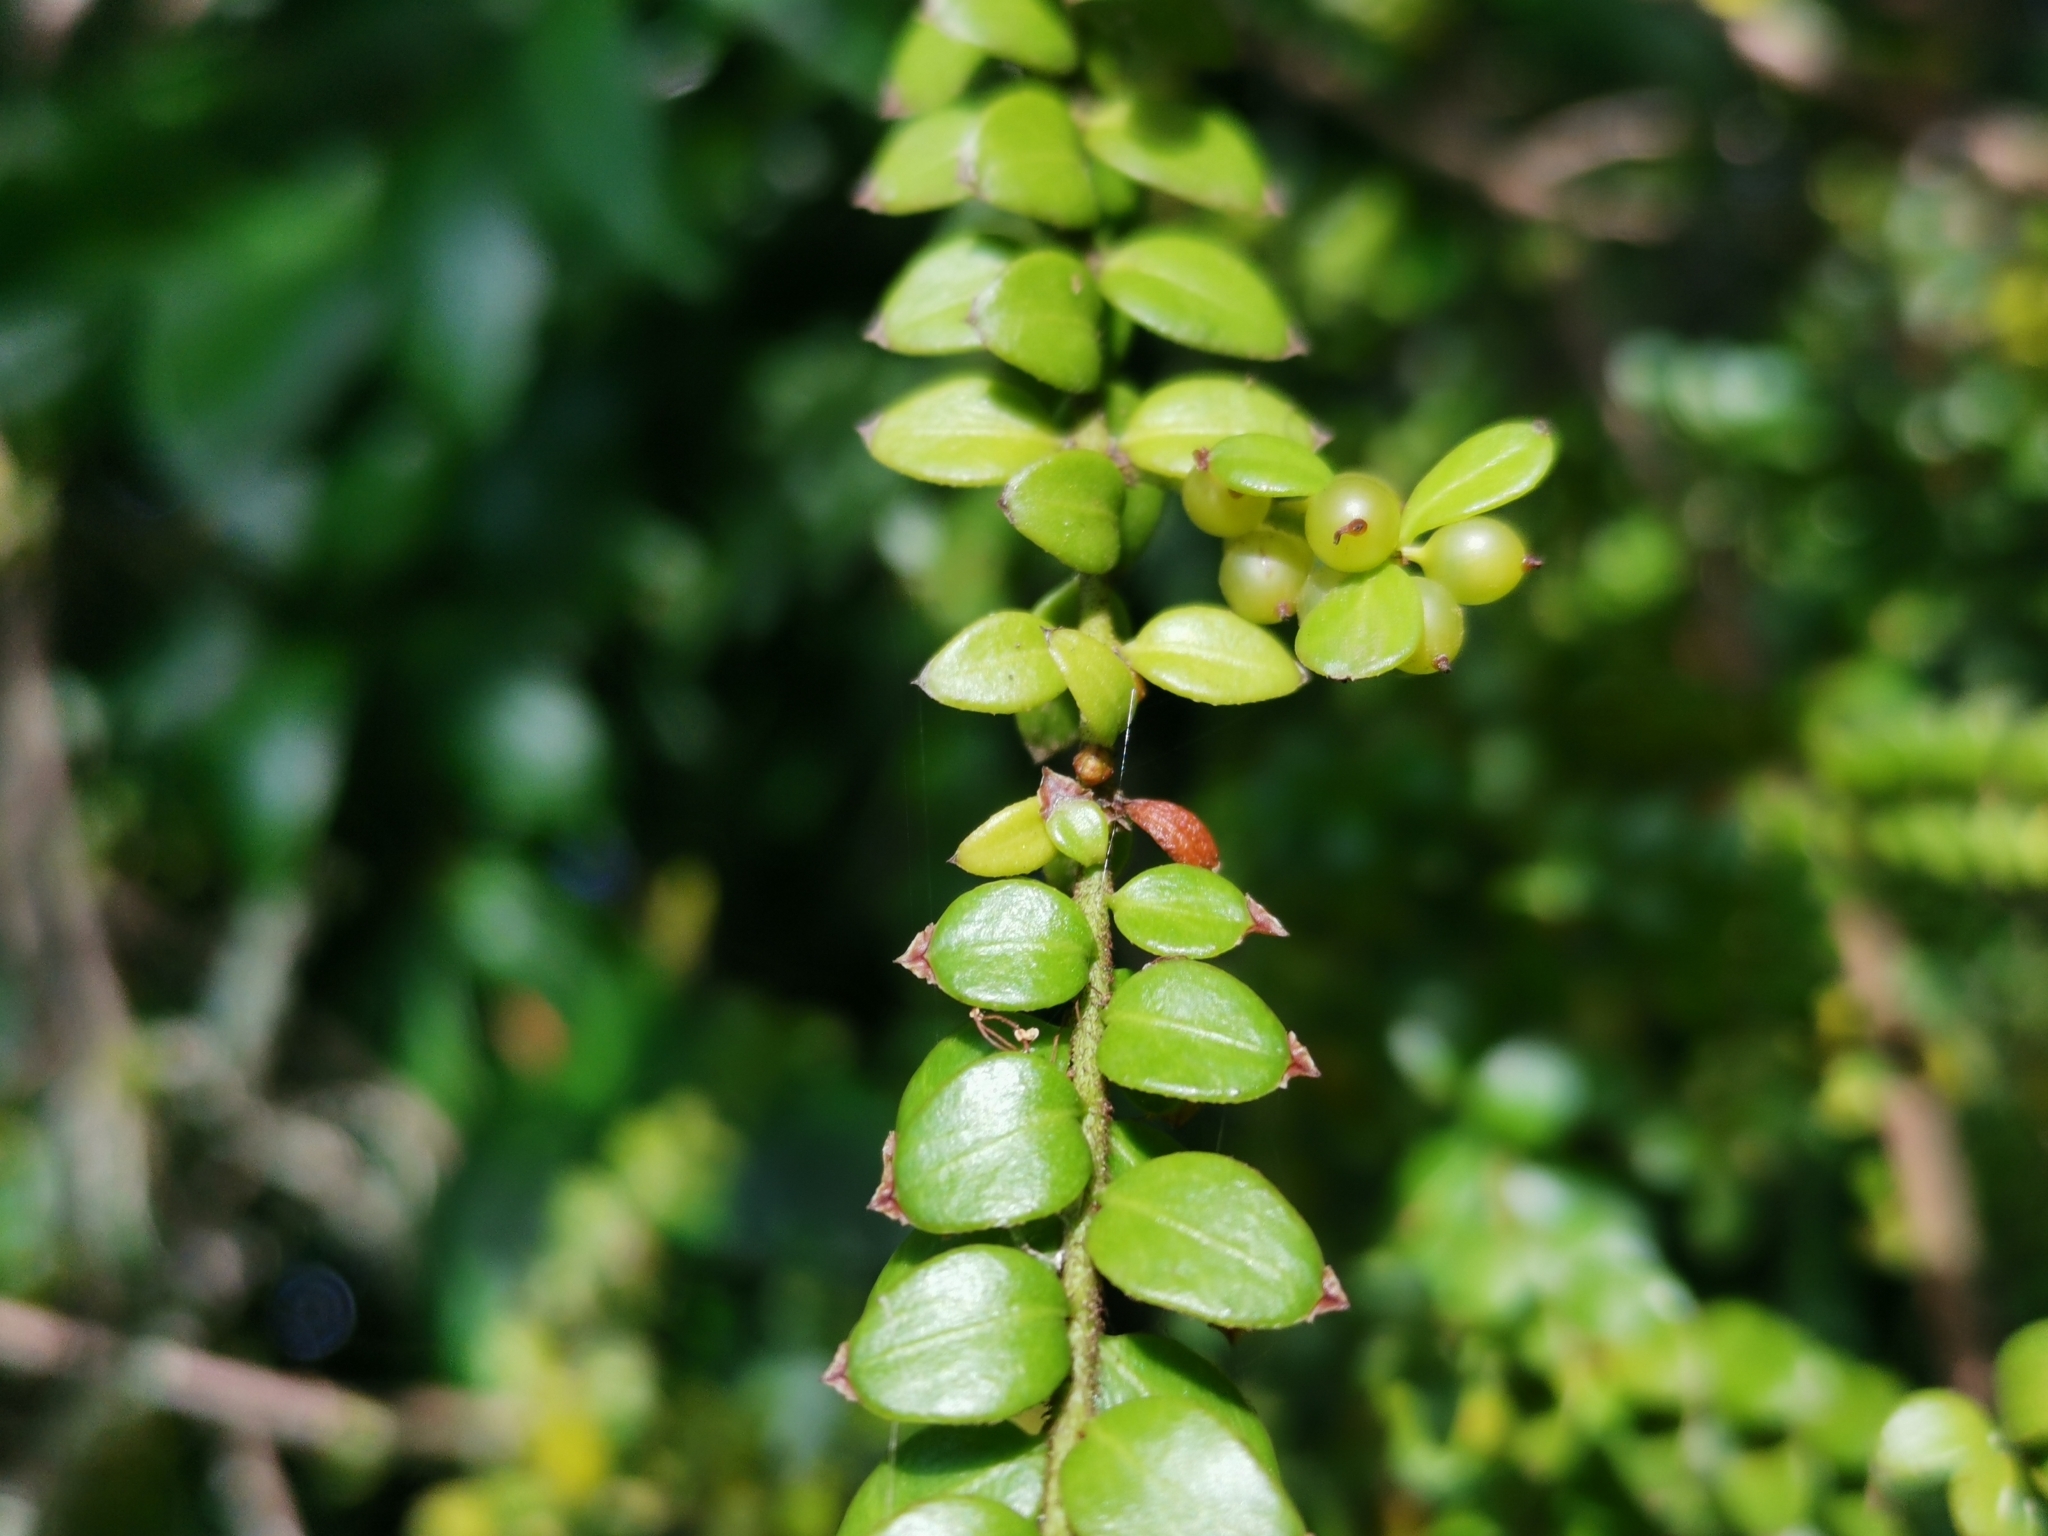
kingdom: Plantae
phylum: Tracheophyta
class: Magnoliopsida
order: Santalales
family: Santalaceae
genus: Lepidoceras
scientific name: Lepidoceras chilense
